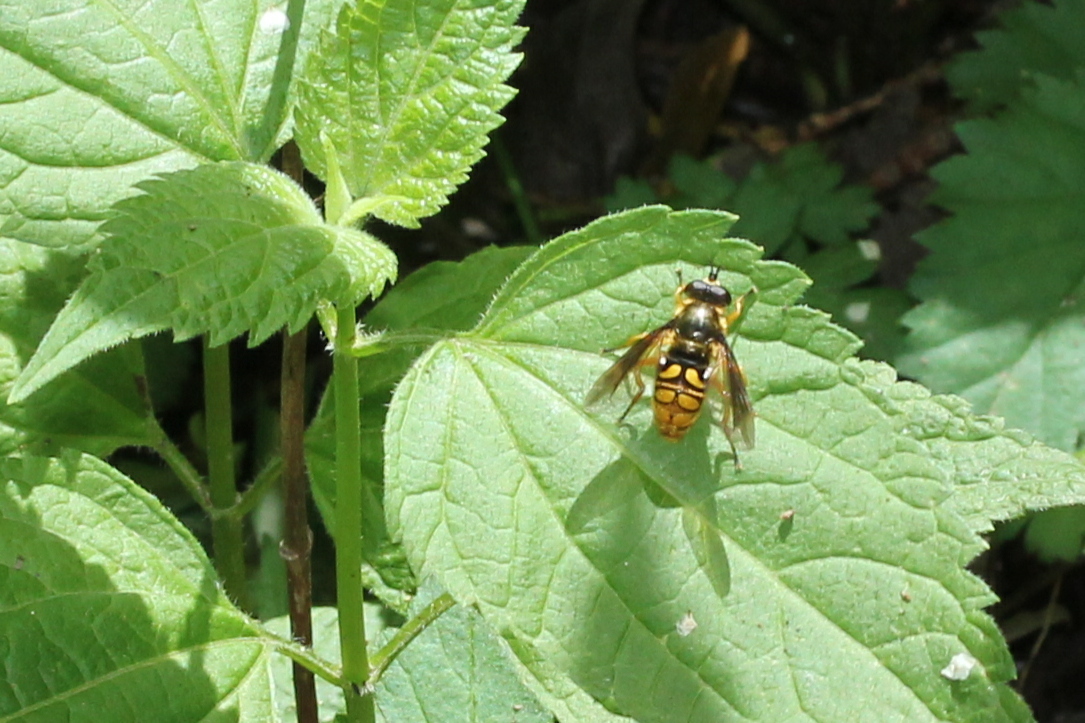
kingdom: Animalia
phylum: Arthropoda
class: Insecta
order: Diptera
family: Syrphidae
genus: Somula
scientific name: Somula decora
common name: Spotted wood fly
